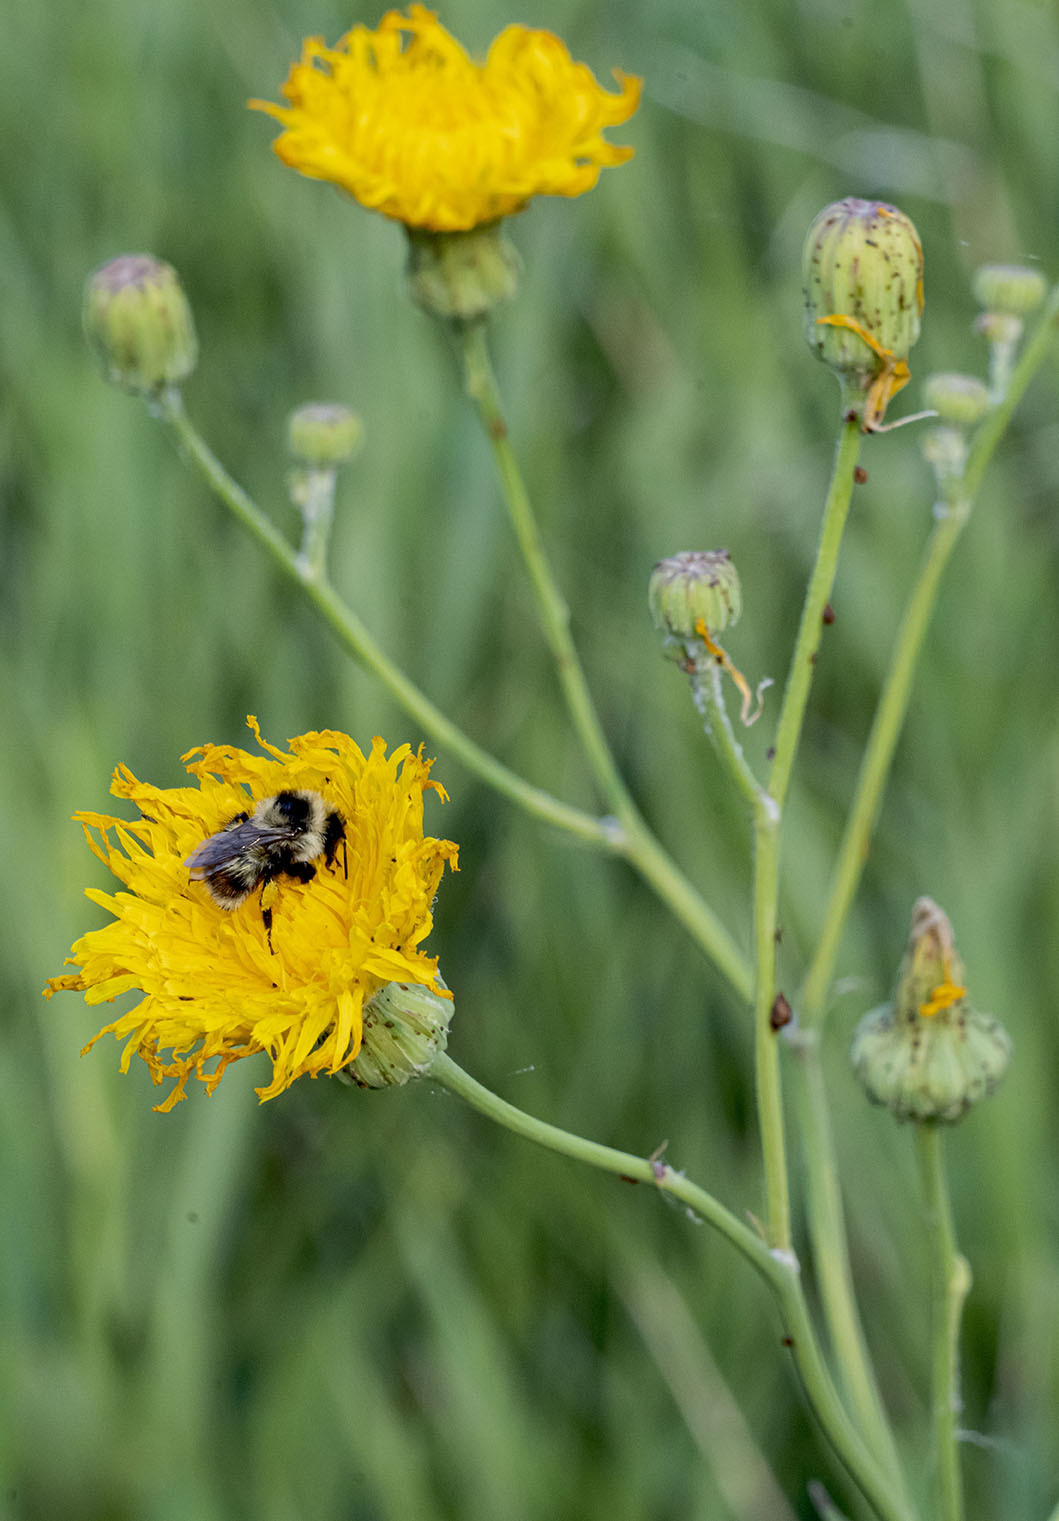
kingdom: Animalia
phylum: Arthropoda
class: Insecta
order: Hymenoptera
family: Apidae
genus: Bombus
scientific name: Bombus rufocinctus
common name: Red-belted bumble bee
